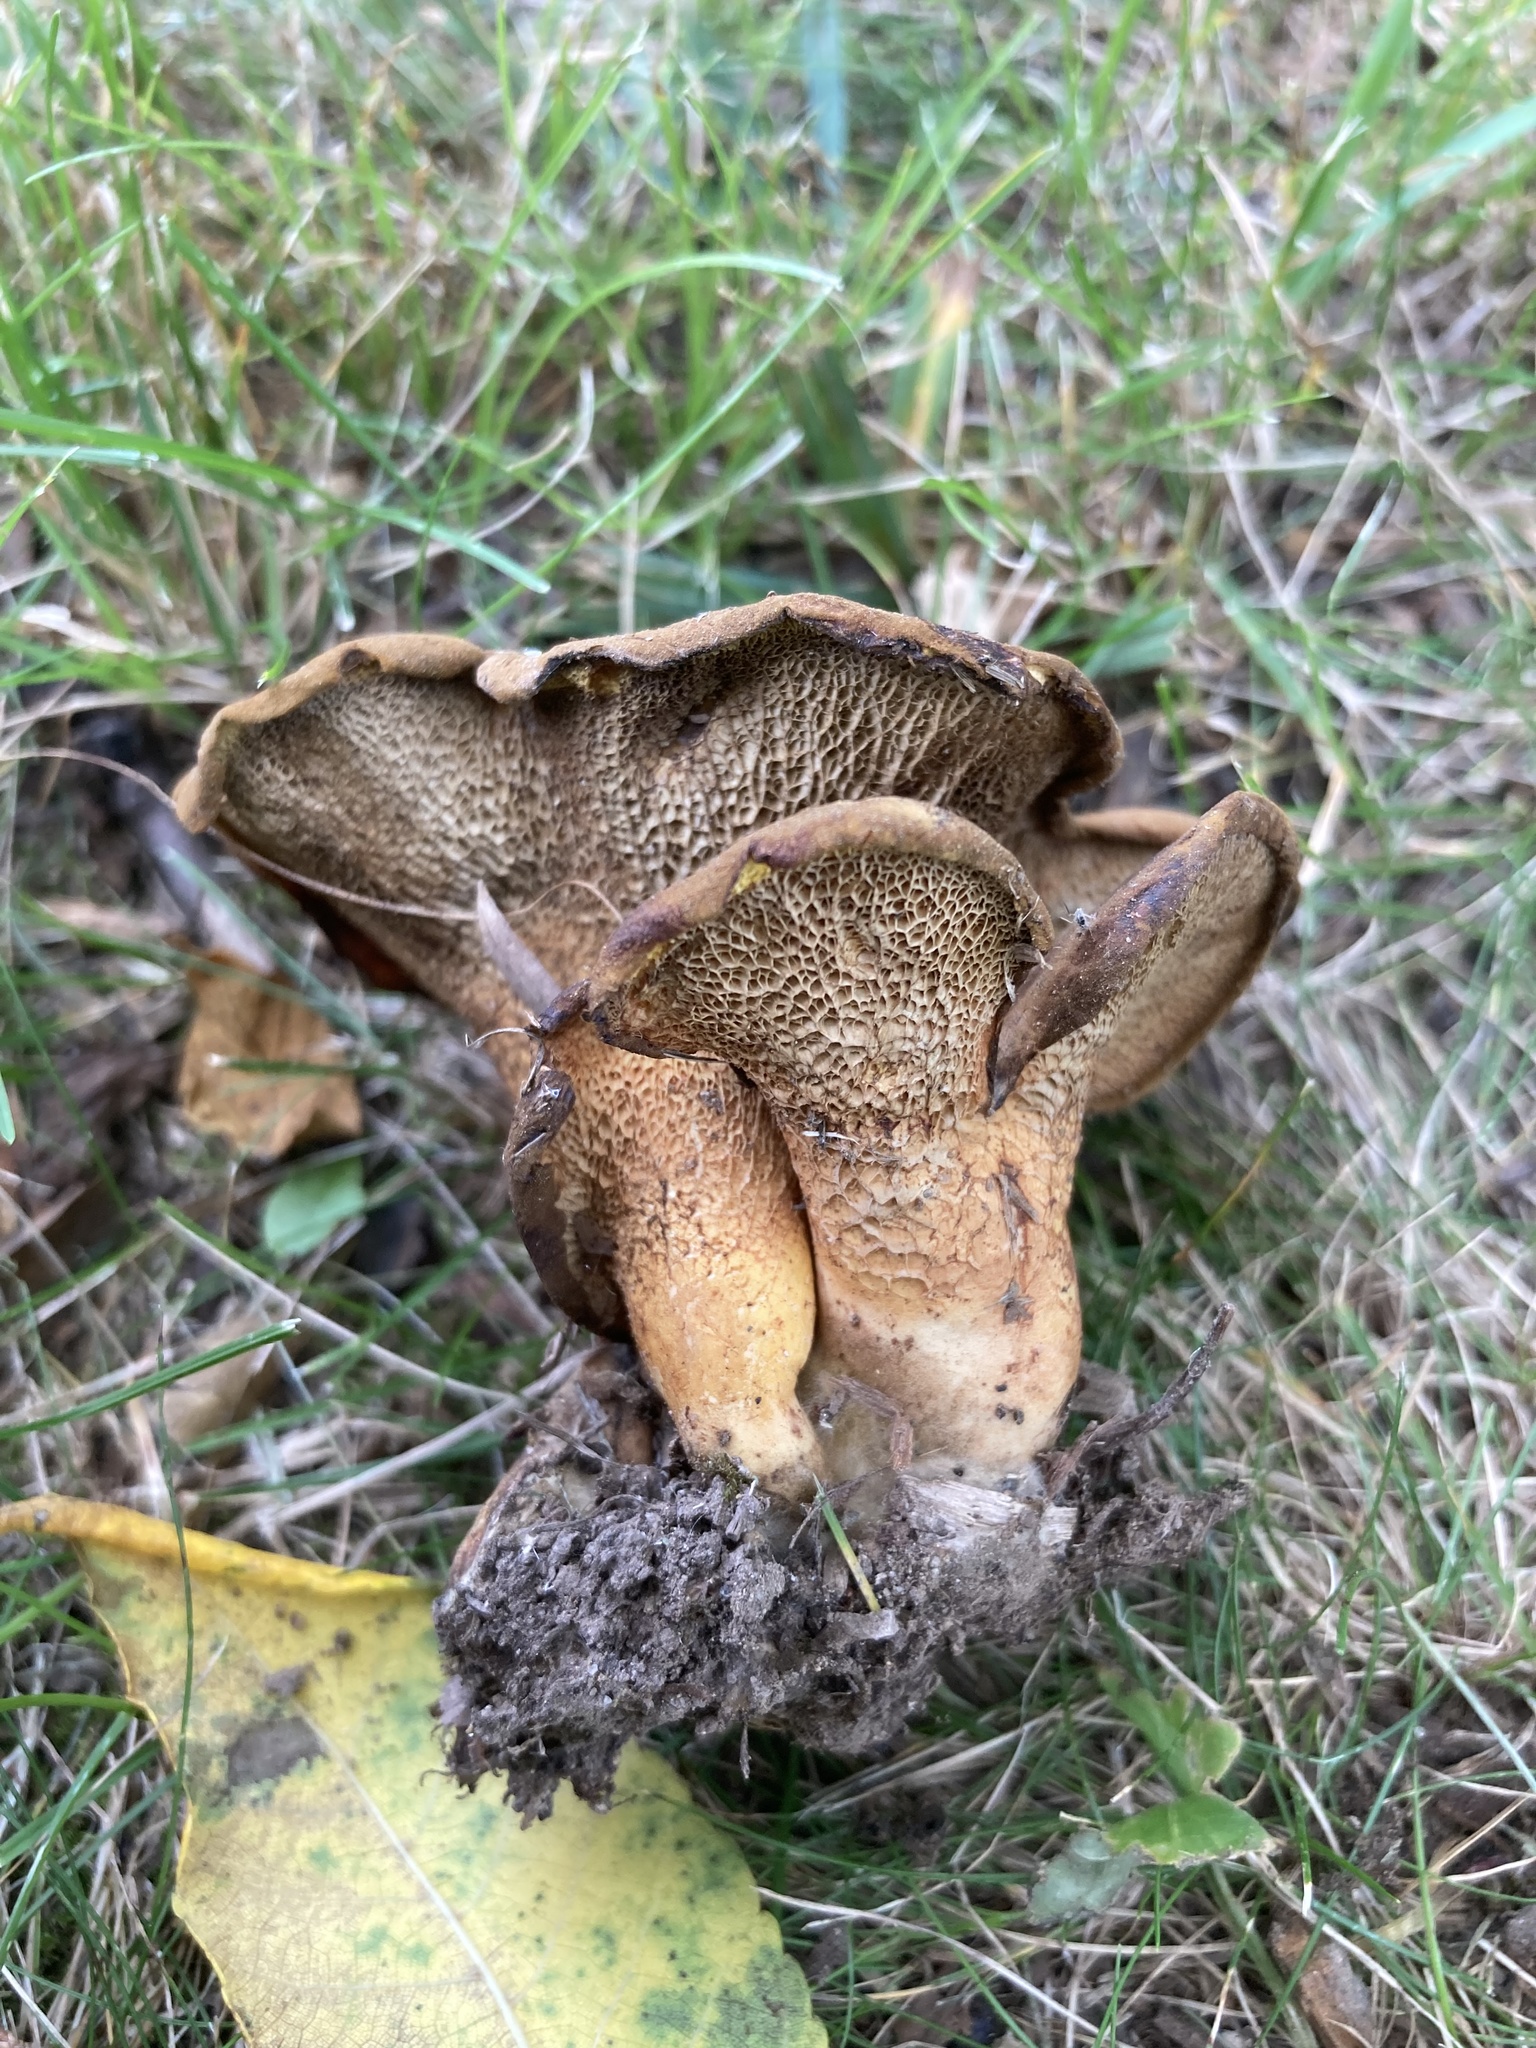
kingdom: Fungi
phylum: Basidiomycota
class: Agaricomycetes
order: Boletales
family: Boletinellaceae
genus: Boletinellus
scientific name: Boletinellus merulioides
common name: Ash tree bolete
